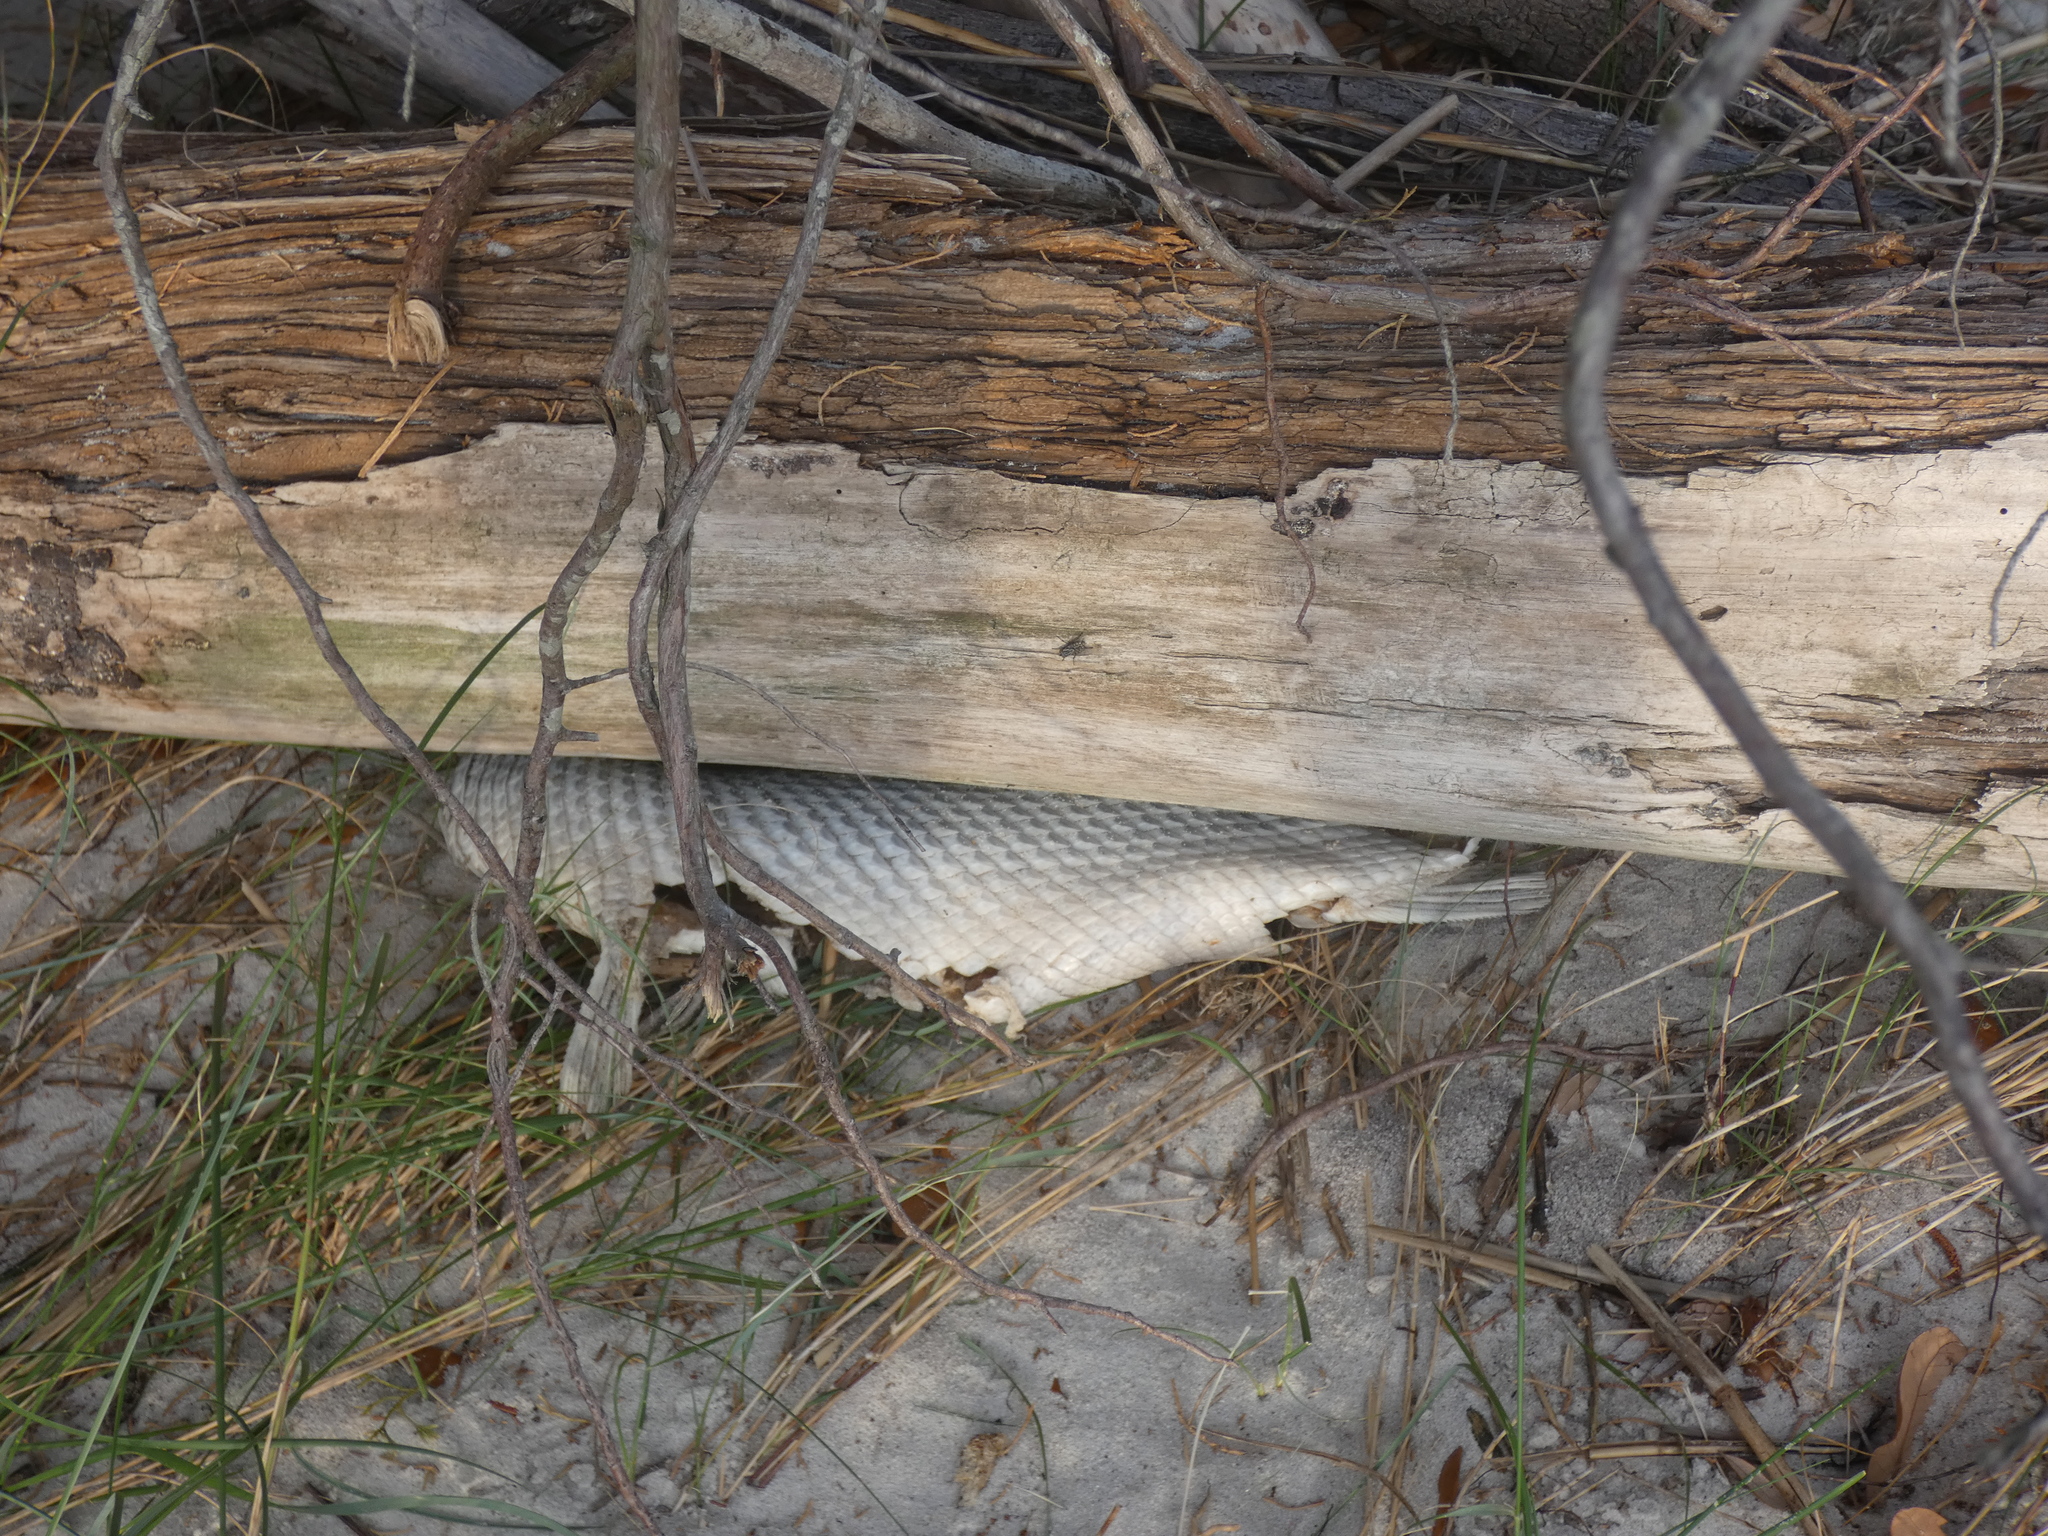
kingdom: Animalia
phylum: Chordata
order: Lepisosteiformes
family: Lepisosteidae
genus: Lepisosteus
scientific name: Lepisosteus osseus
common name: Longnose gar
